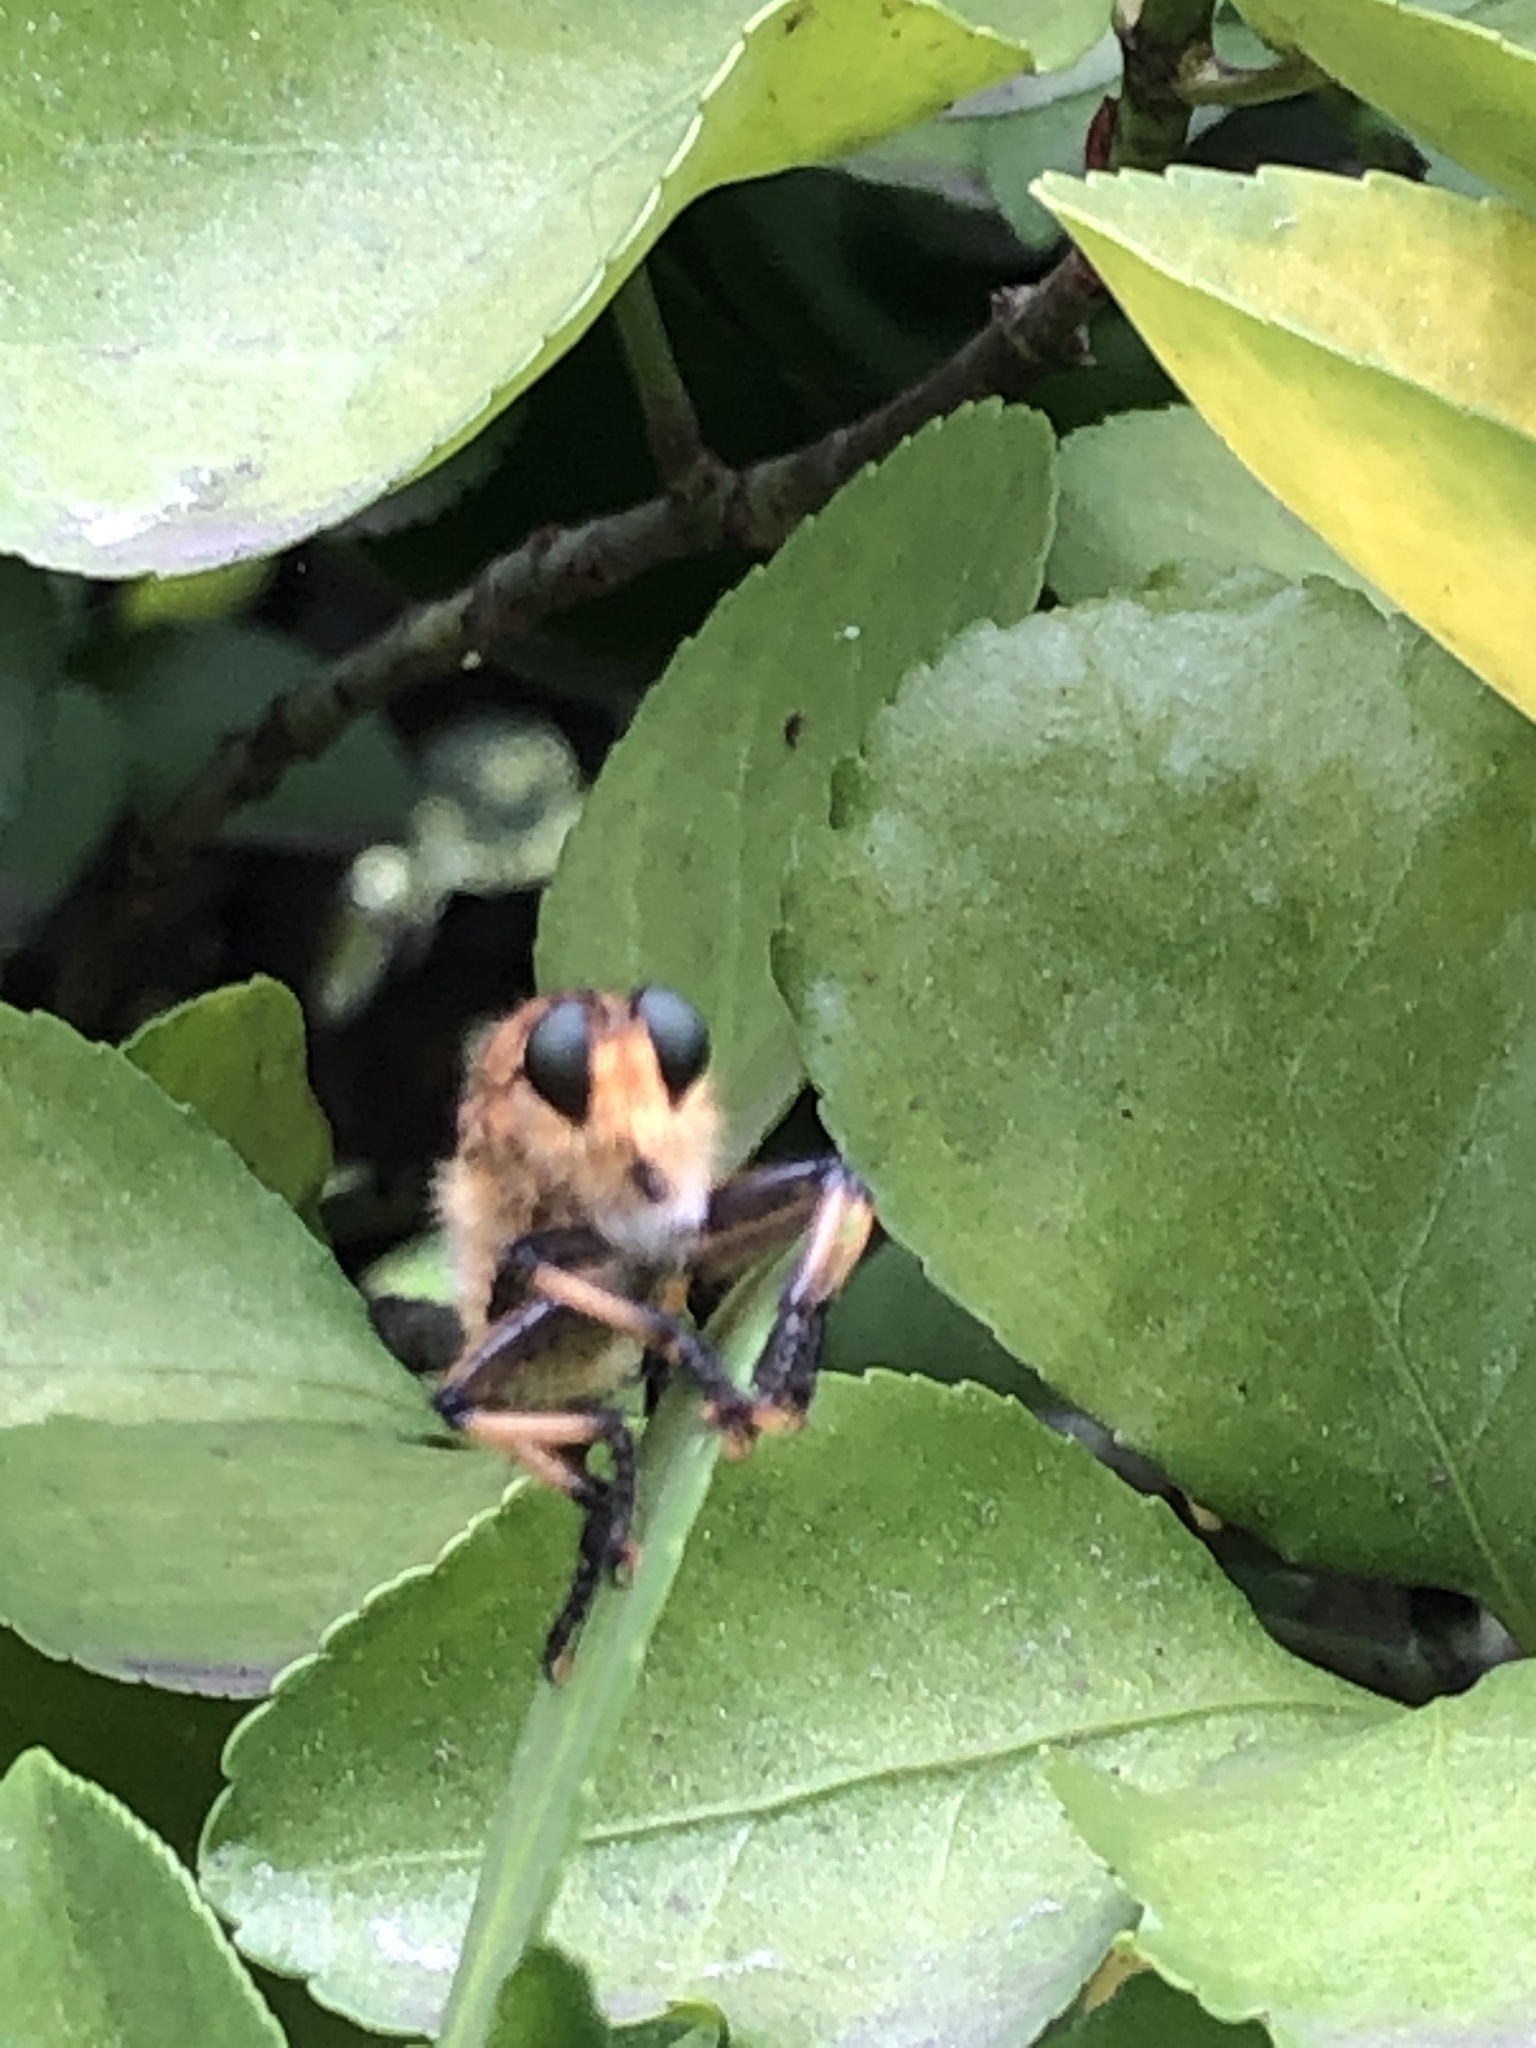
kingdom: Animalia
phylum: Arthropoda
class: Insecta
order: Diptera
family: Asilidae
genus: Promachus
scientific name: Promachus yesonicus
